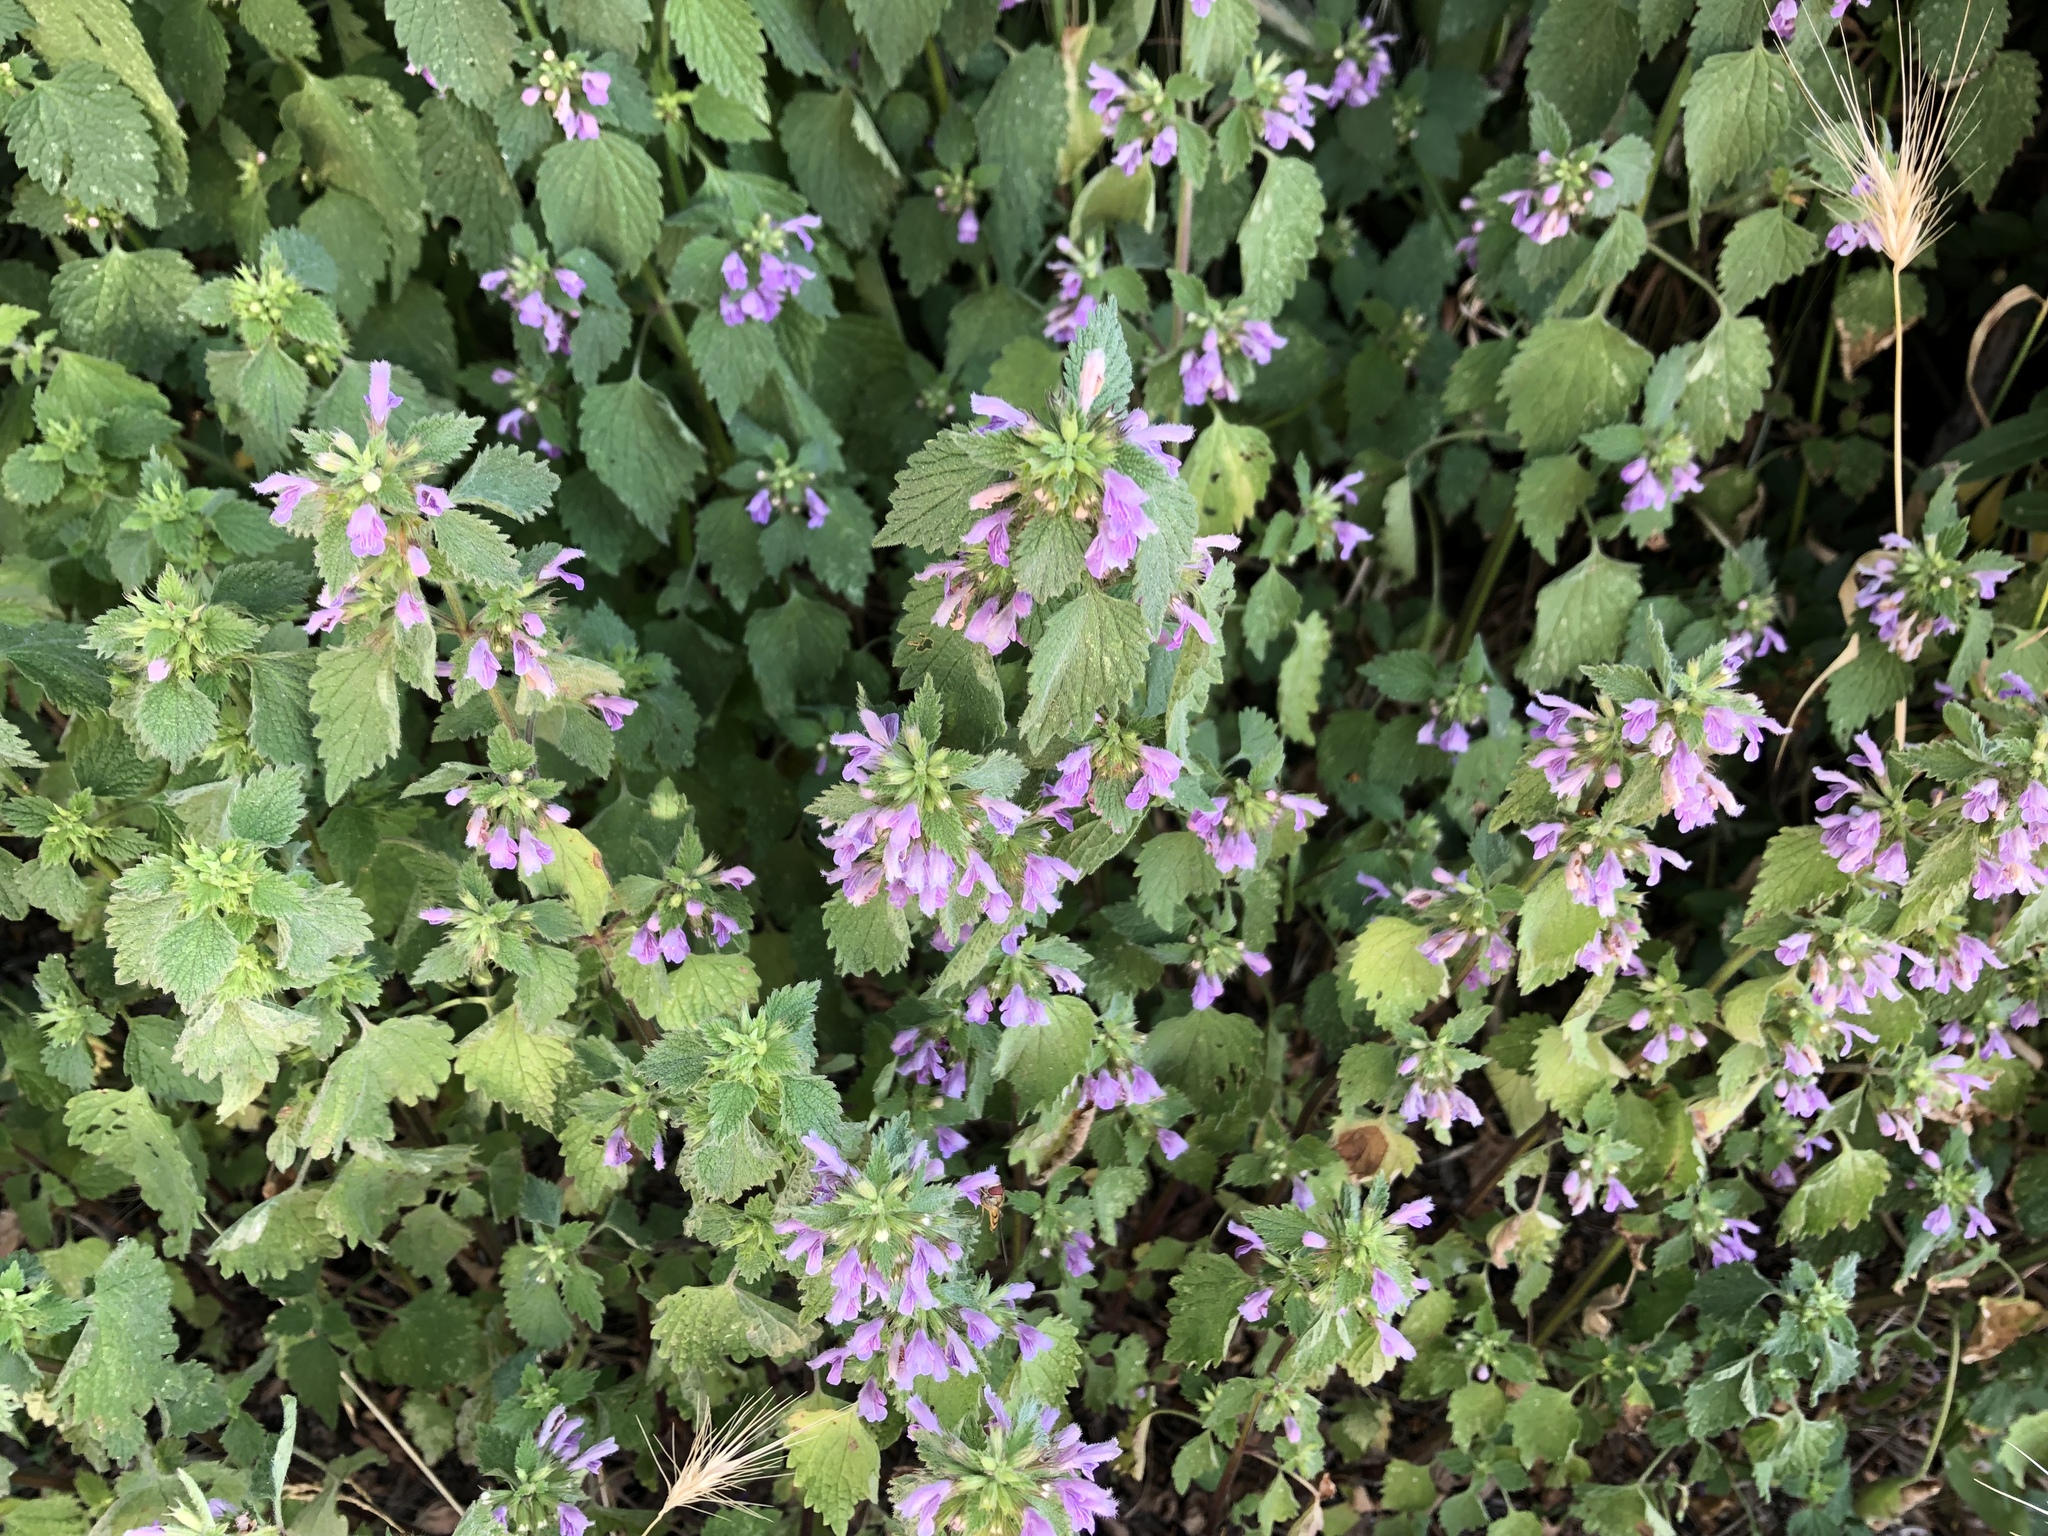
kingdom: Plantae
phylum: Tracheophyta
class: Magnoliopsida
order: Lamiales
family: Lamiaceae
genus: Ballota
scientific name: Ballota nigra
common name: Black horehound
